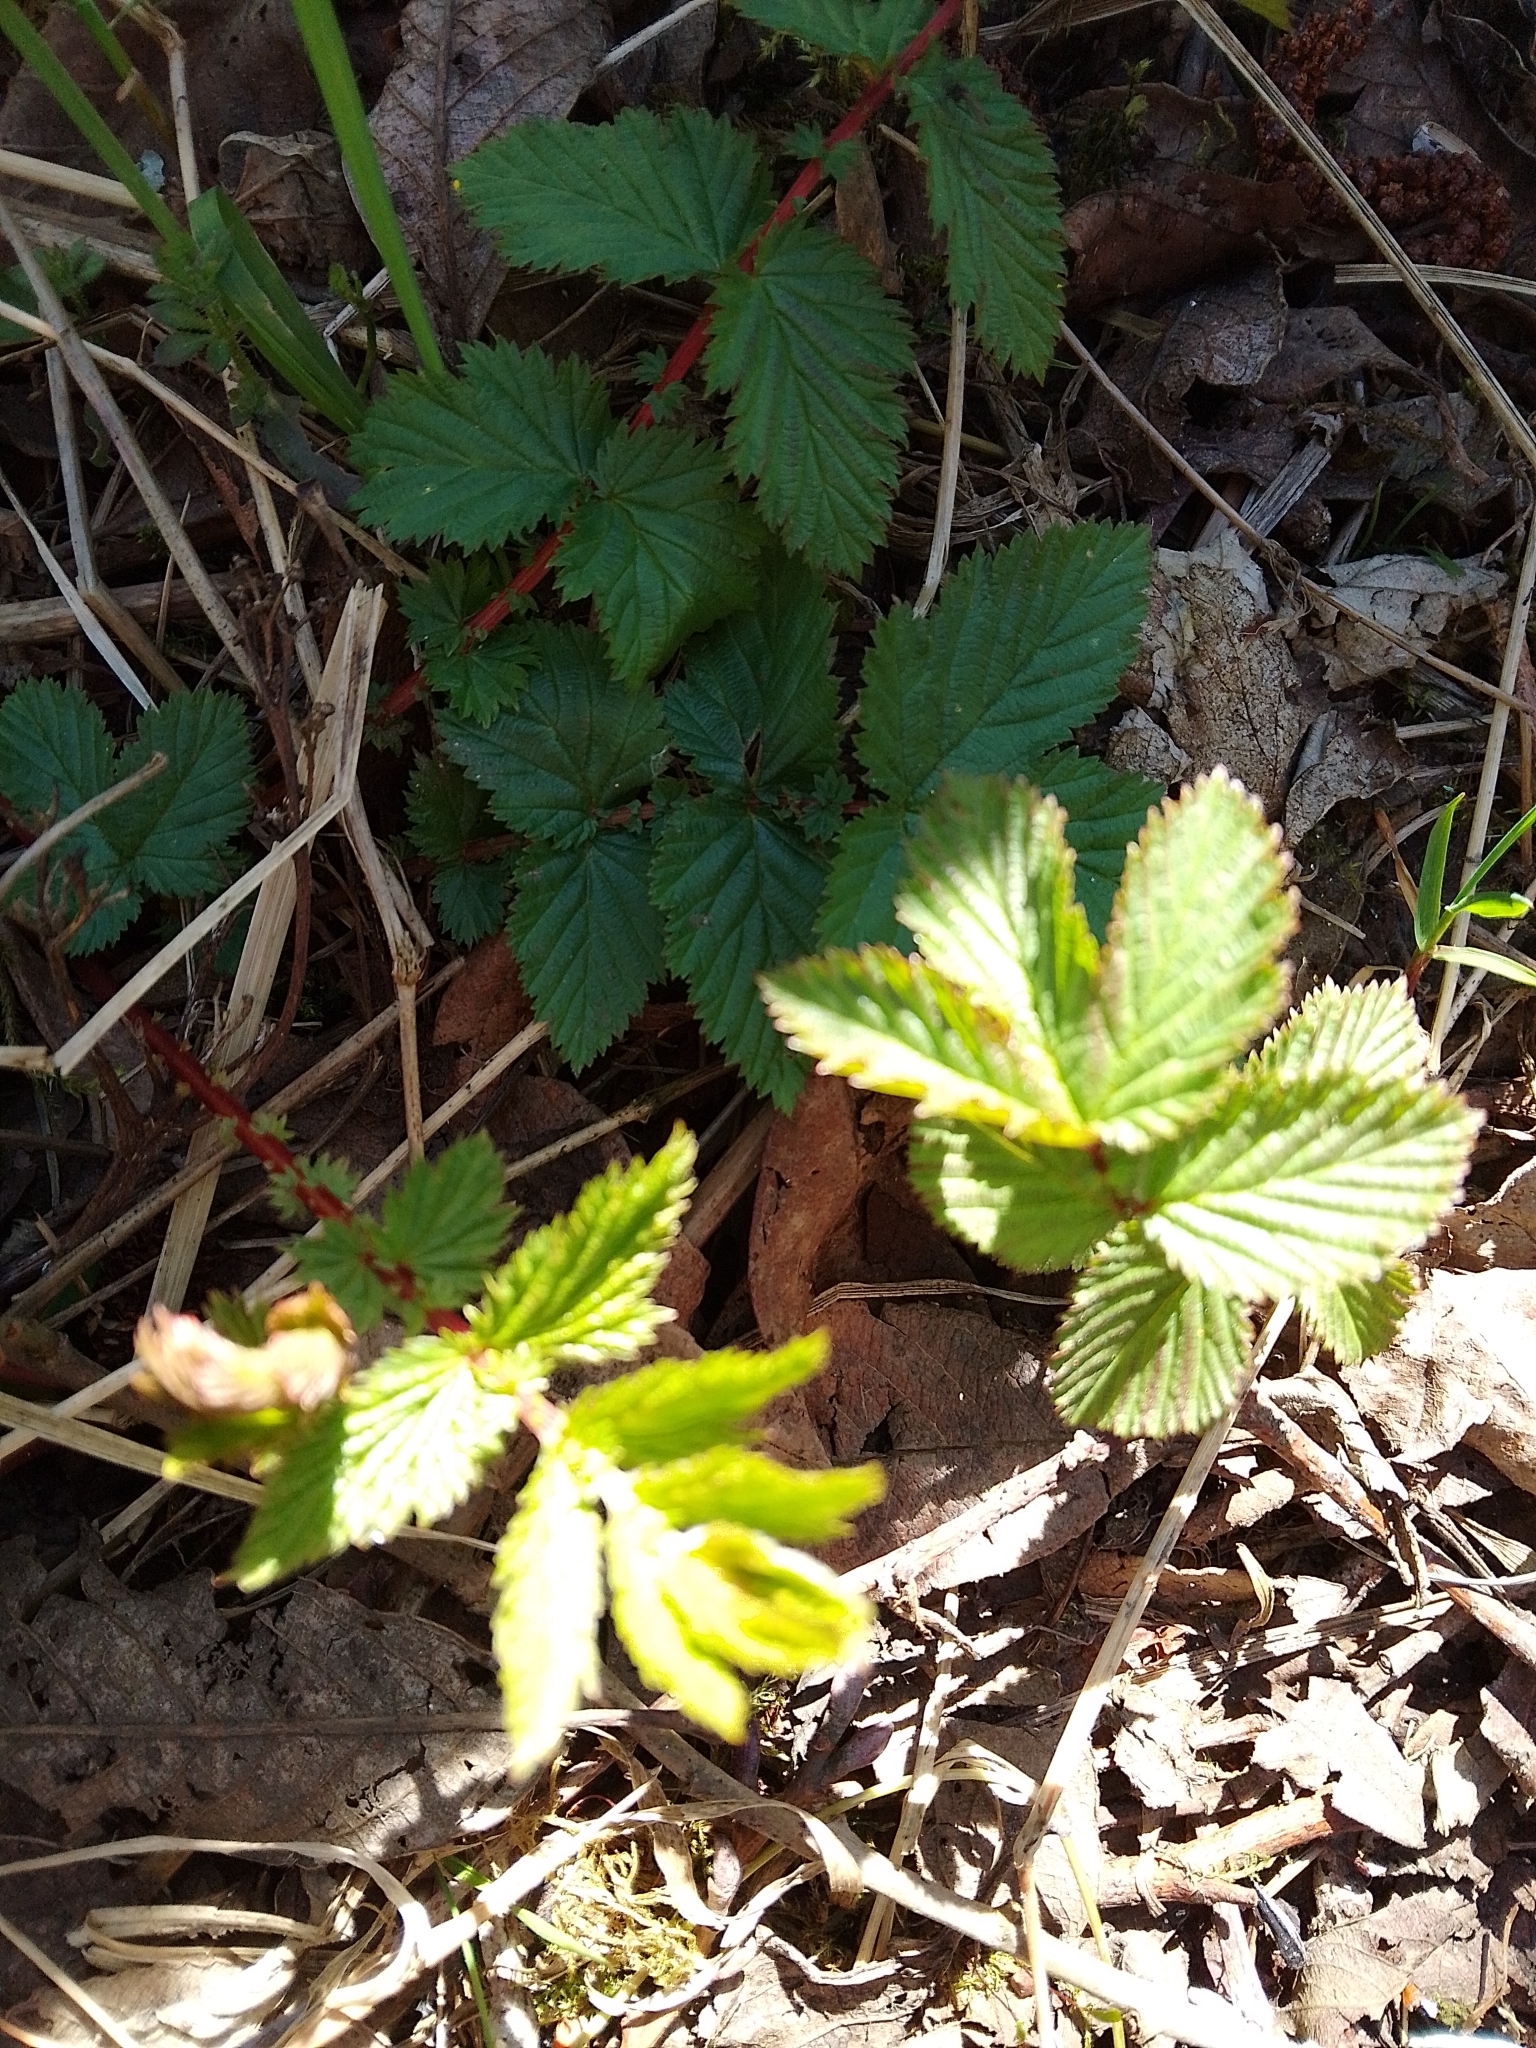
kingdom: Plantae
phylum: Tracheophyta
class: Magnoliopsida
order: Rosales
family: Rosaceae
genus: Filipendula
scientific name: Filipendula ulmaria
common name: Meadowsweet
